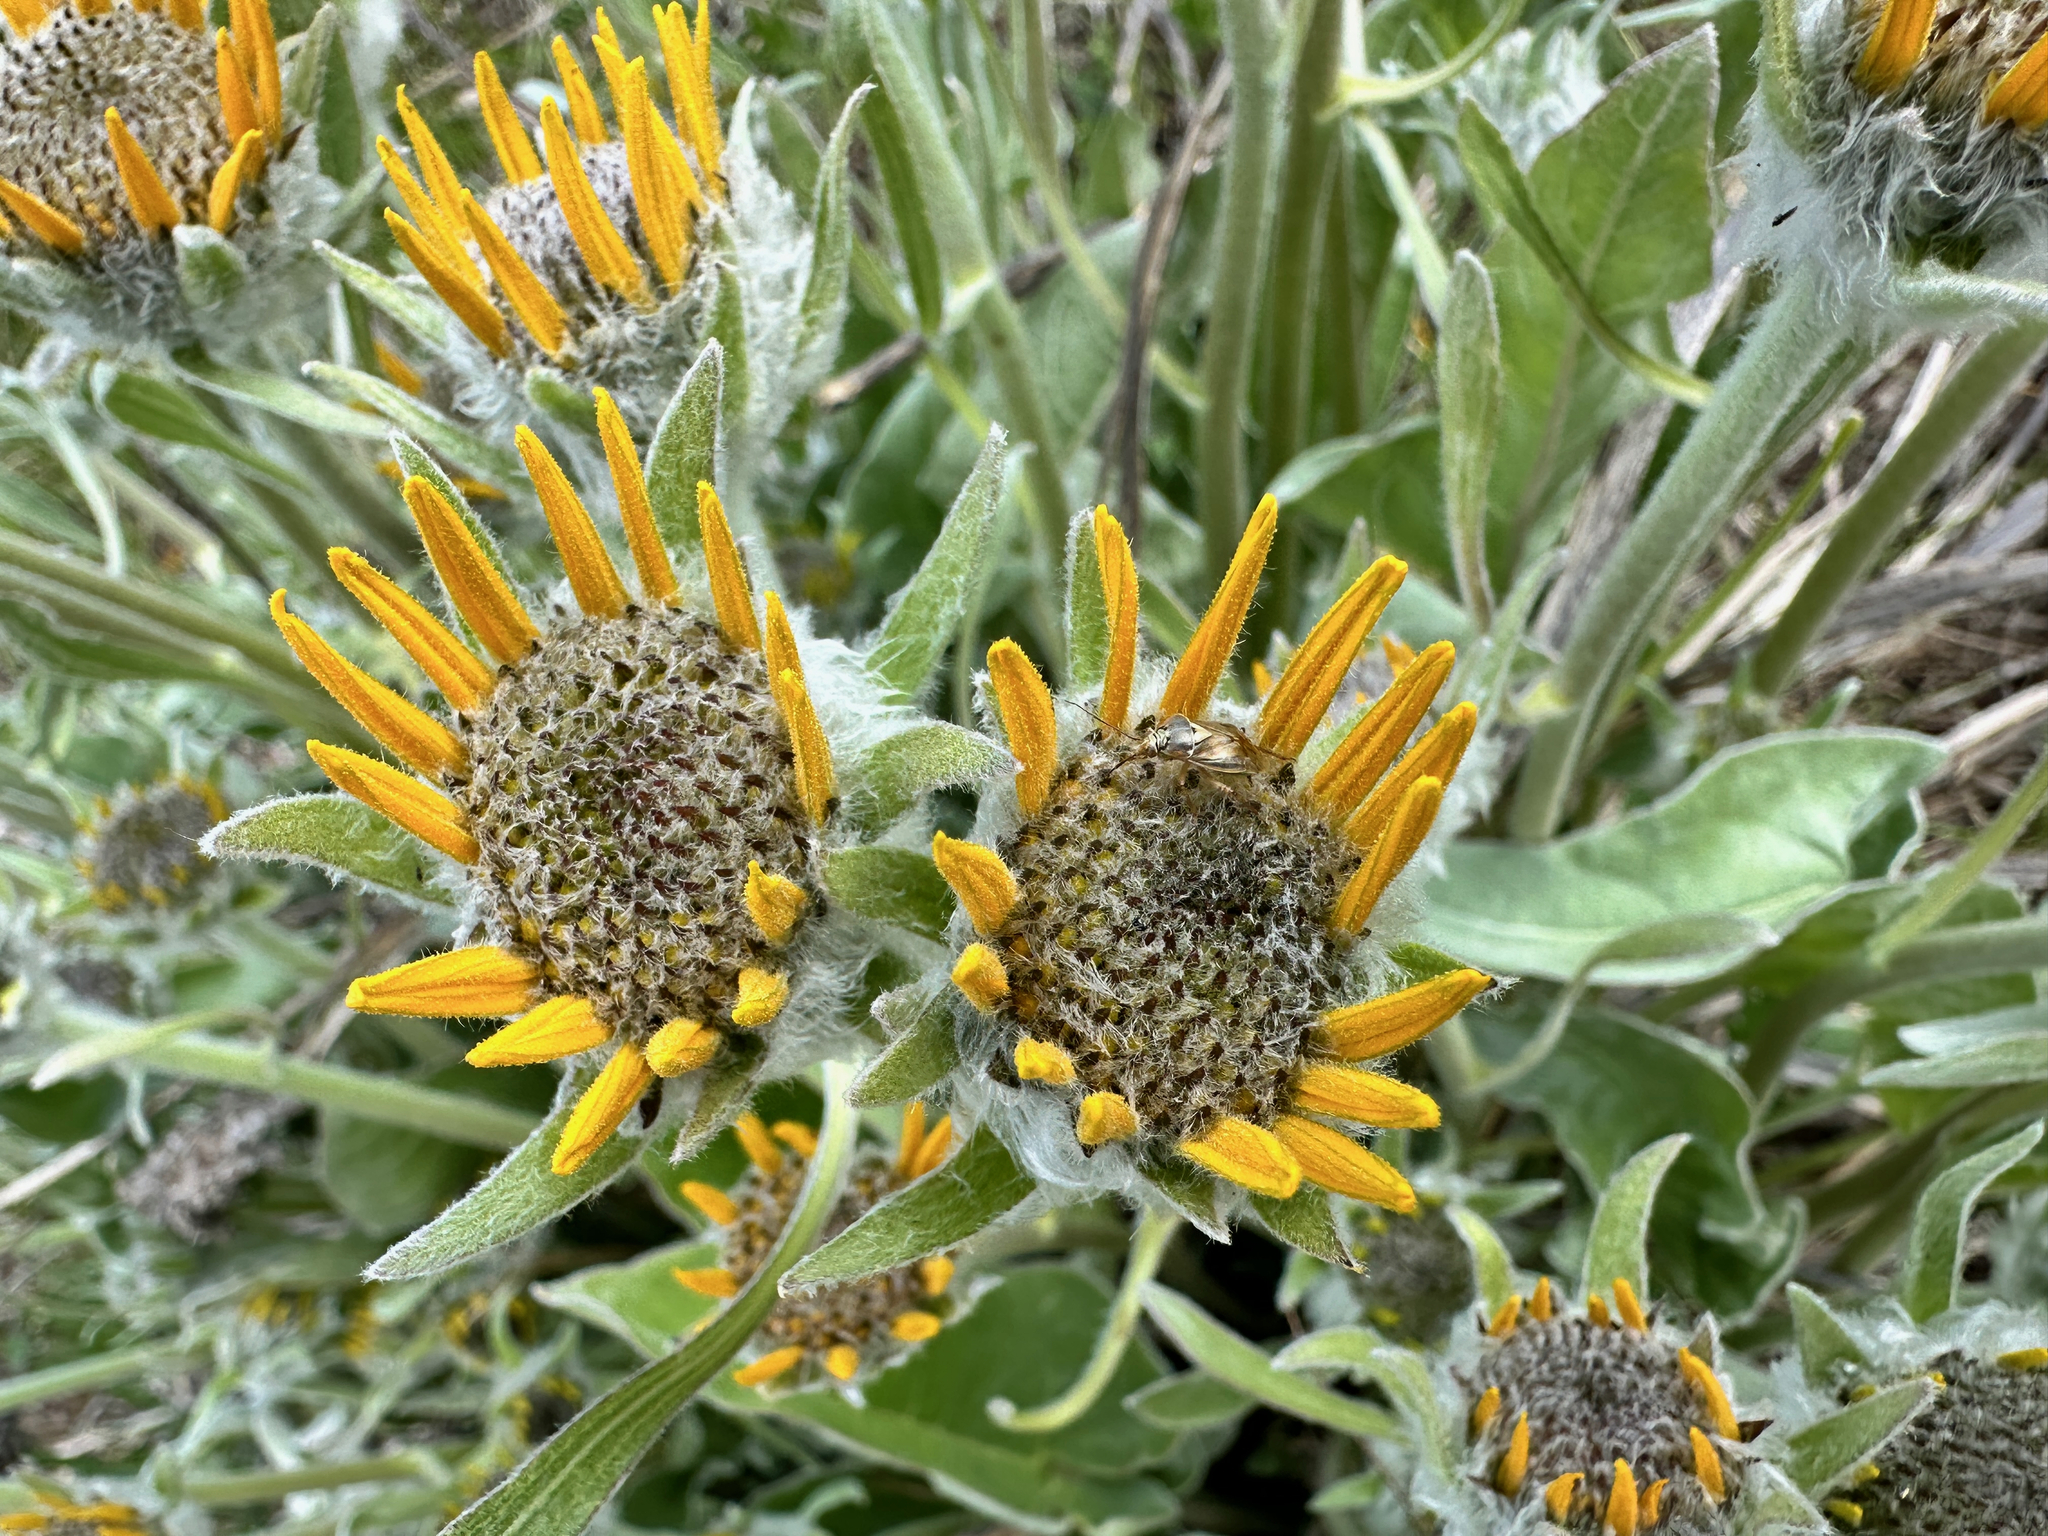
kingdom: Plantae
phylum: Tracheophyta
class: Magnoliopsida
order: Asterales
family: Asteraceae
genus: Wyethia
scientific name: Wyethia sagittata
